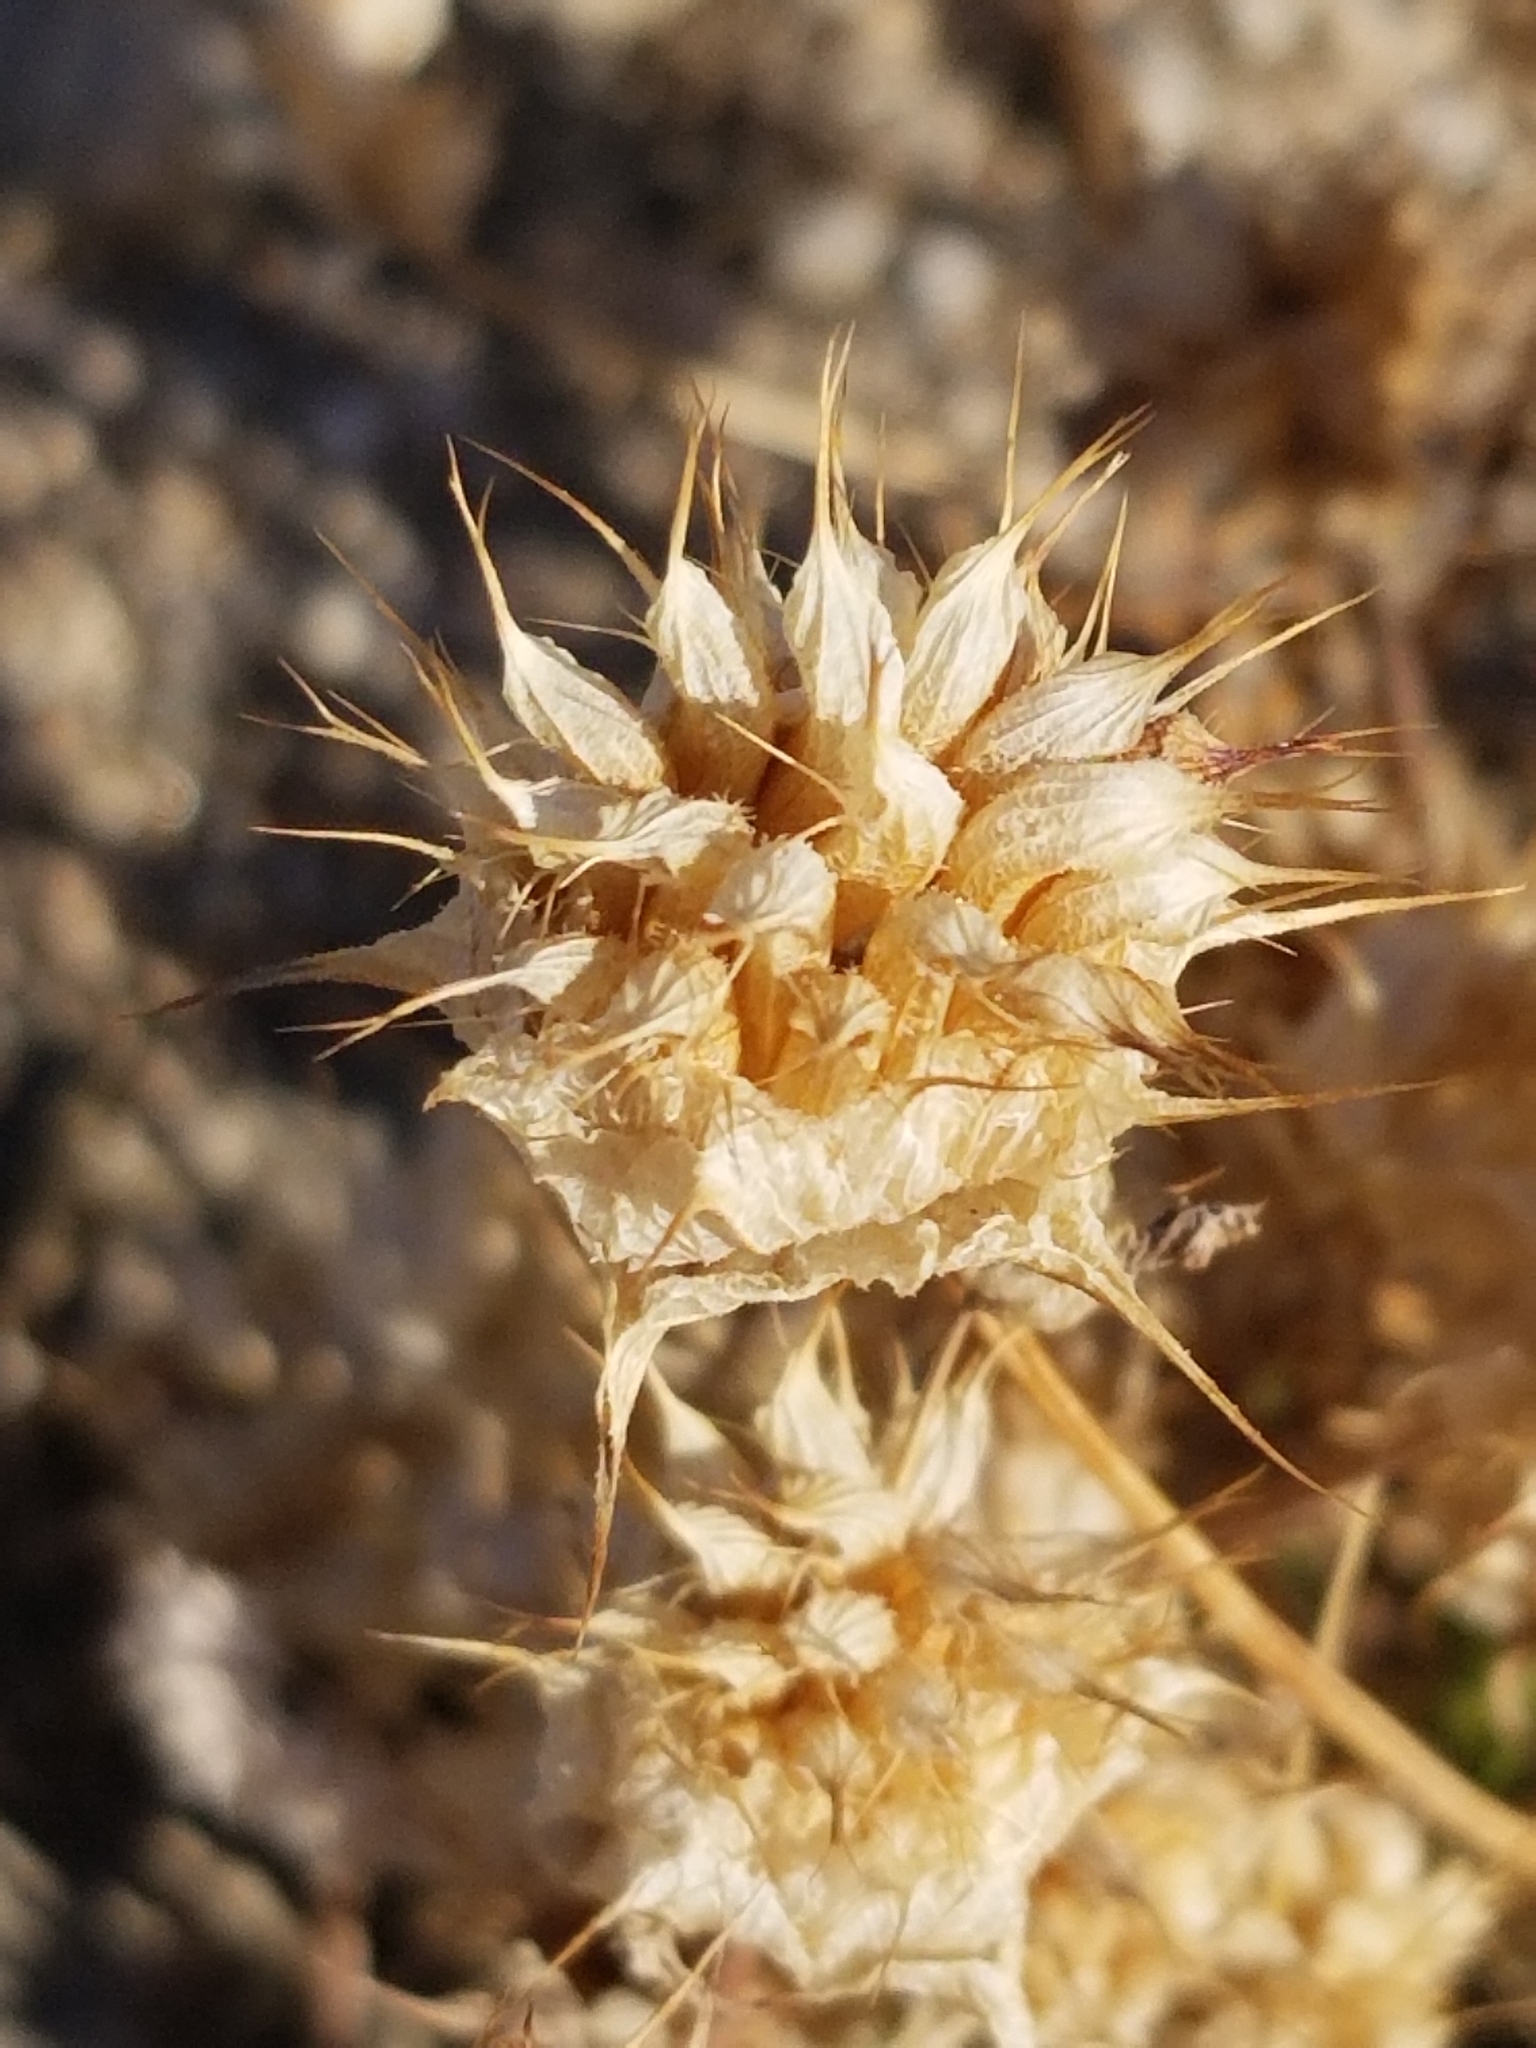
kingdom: Plantae
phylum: Tracheophyta
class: Magnoliopsida
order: Lamiales
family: Lamiaceae
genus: Salvia
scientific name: Salvia columbariae
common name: Chia
